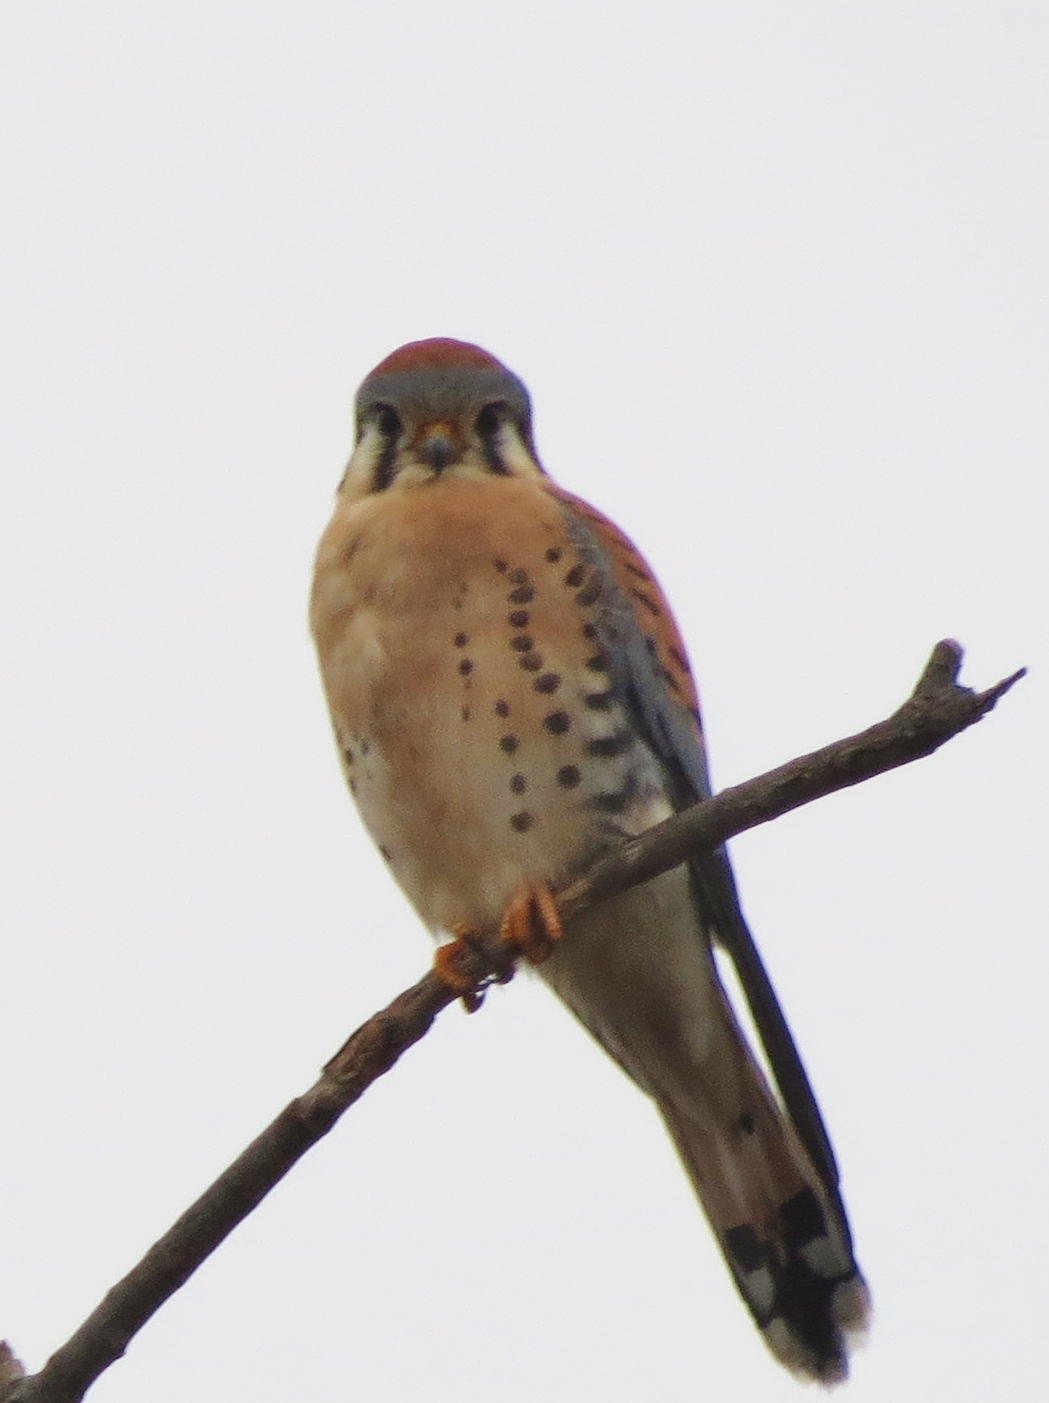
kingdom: Animalia
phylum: Chordata
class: Aves
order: Falconiformes
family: Falconidae
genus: Falco
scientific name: Falco sparverius
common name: American kestrel
